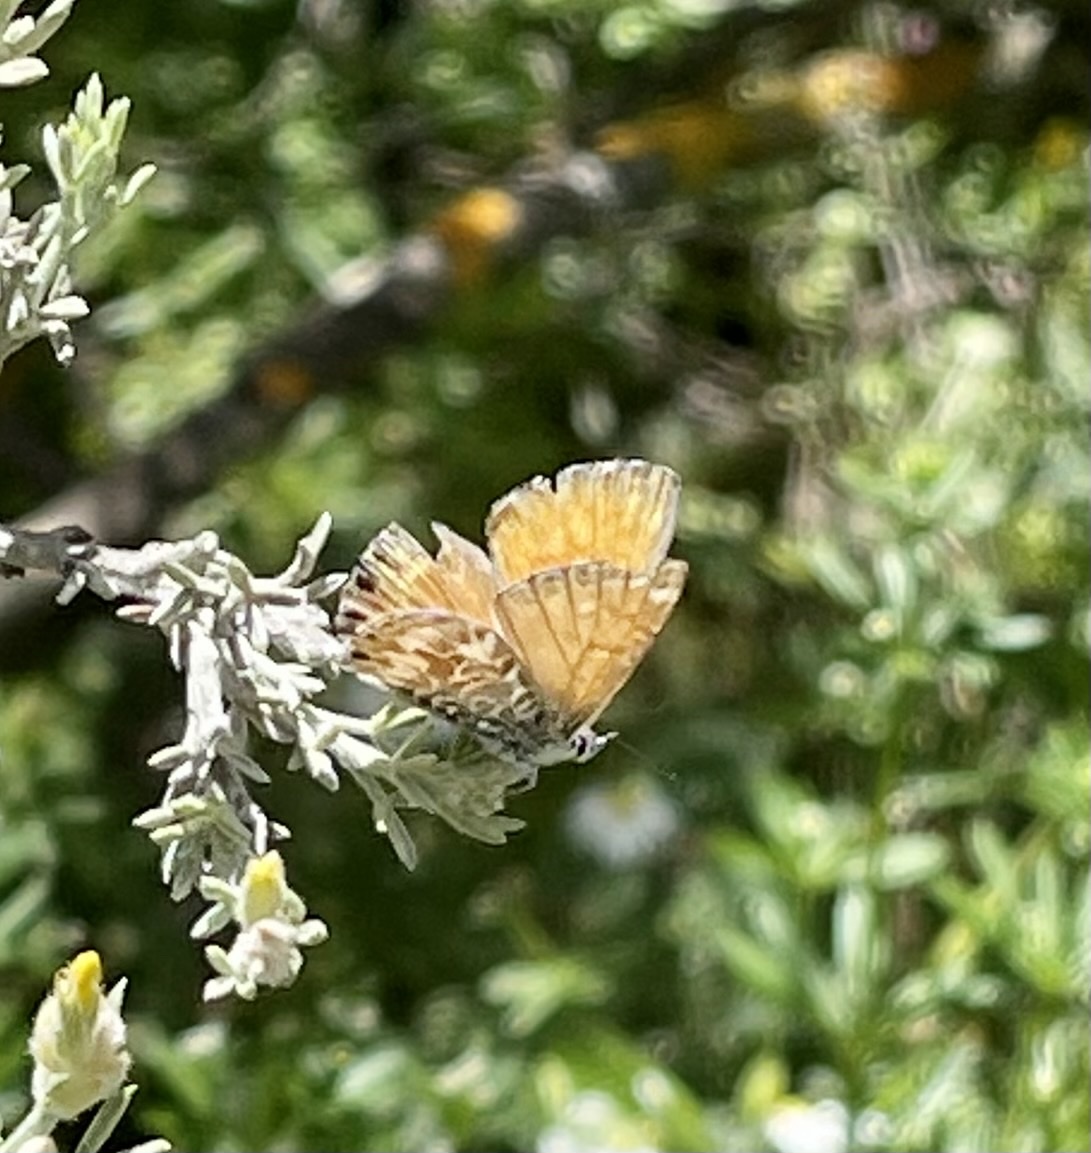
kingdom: Animalia
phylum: Arthropoda
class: Insecta
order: Lepidoptera
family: Lycaenidae
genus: Cyclyrius
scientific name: Cyclyrius webbianus
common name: Canary blue
